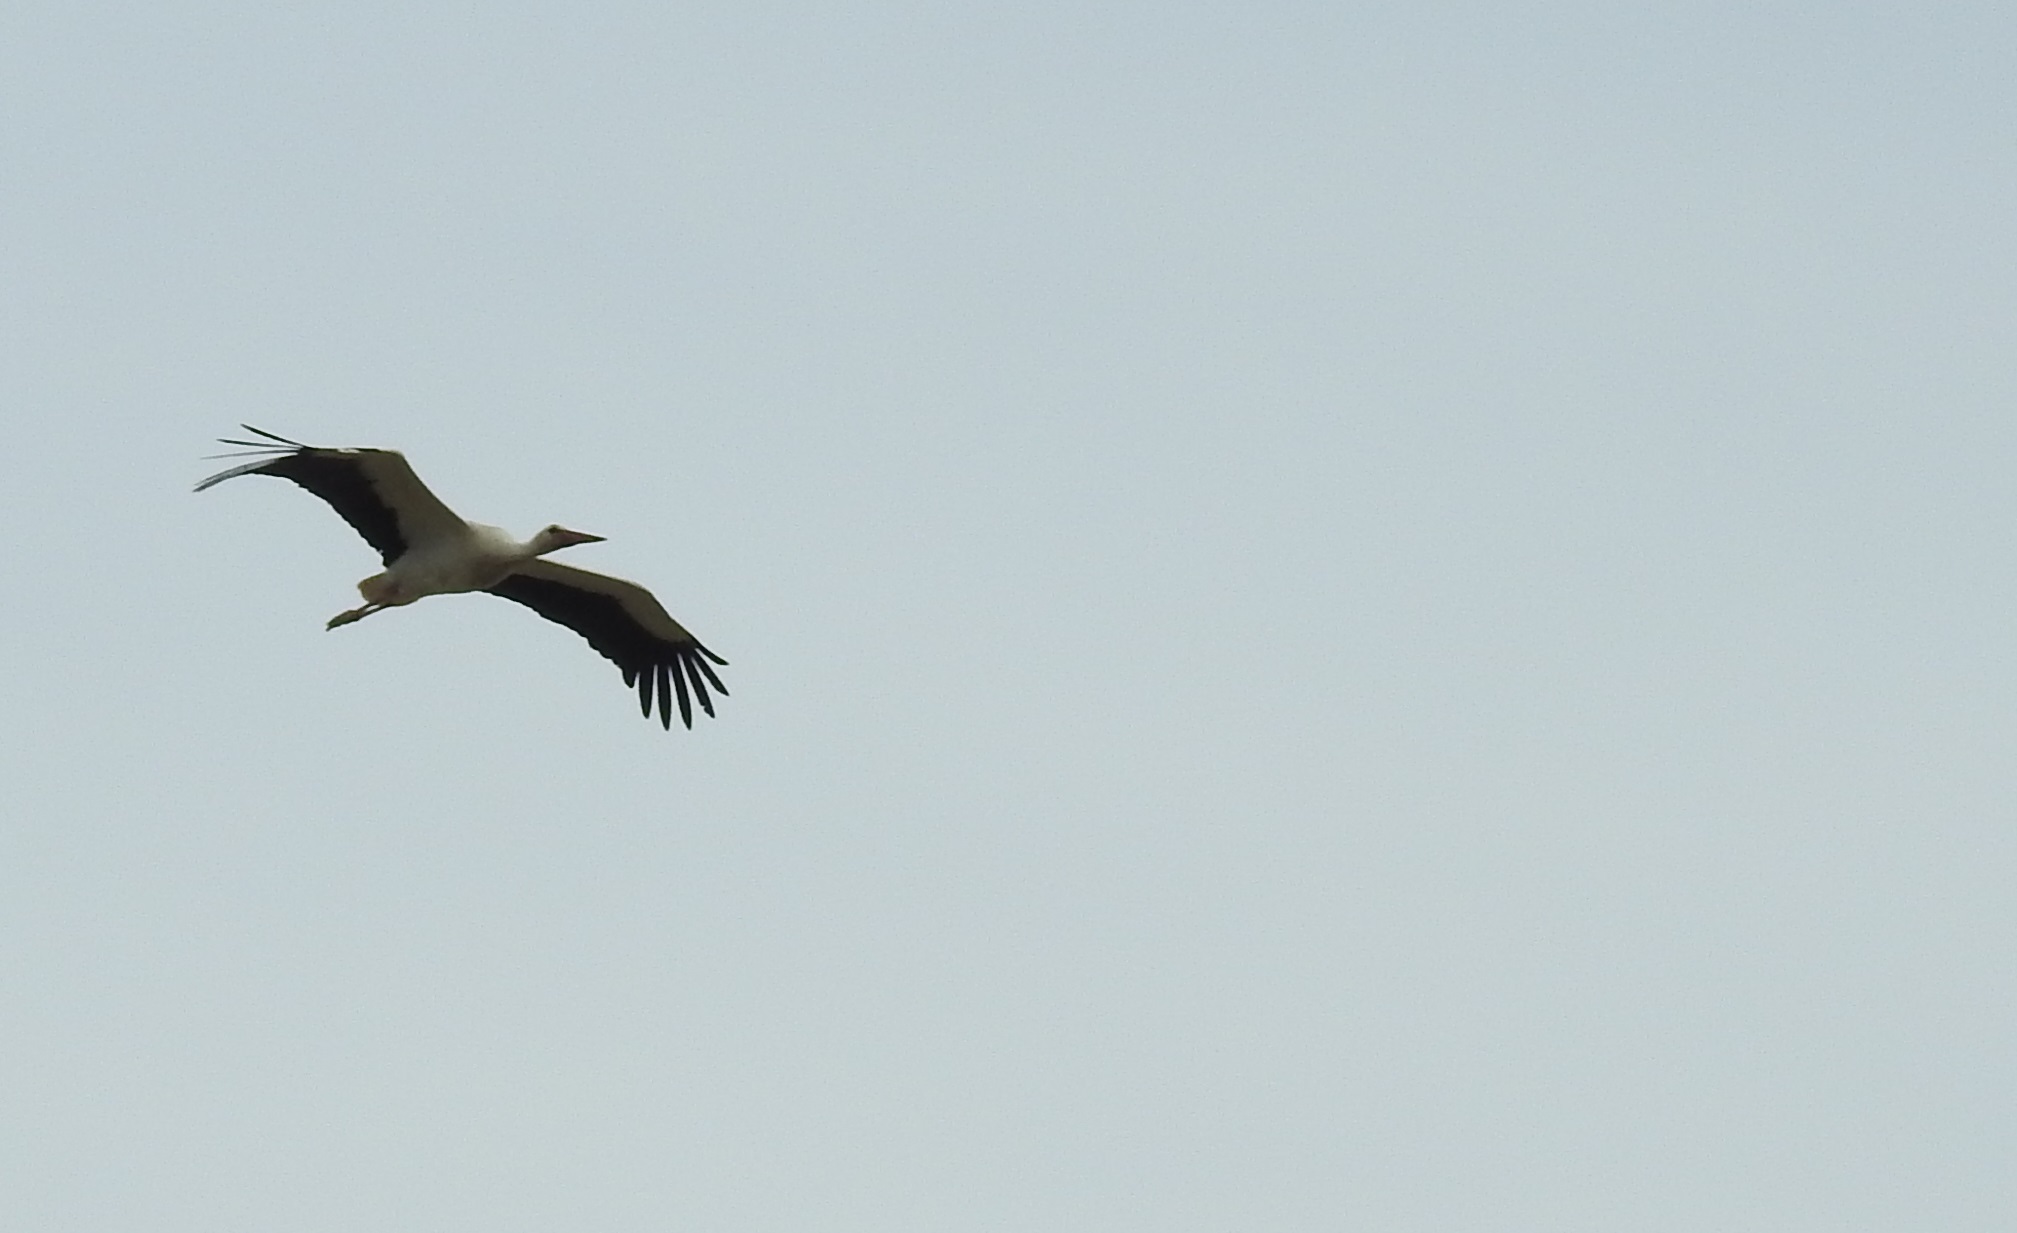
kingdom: Animalia
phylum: Chordata
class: Aves
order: Ciconiiformes
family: Ciconiidae
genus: Ciconia
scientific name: Ciconia ciconia
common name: White stork
